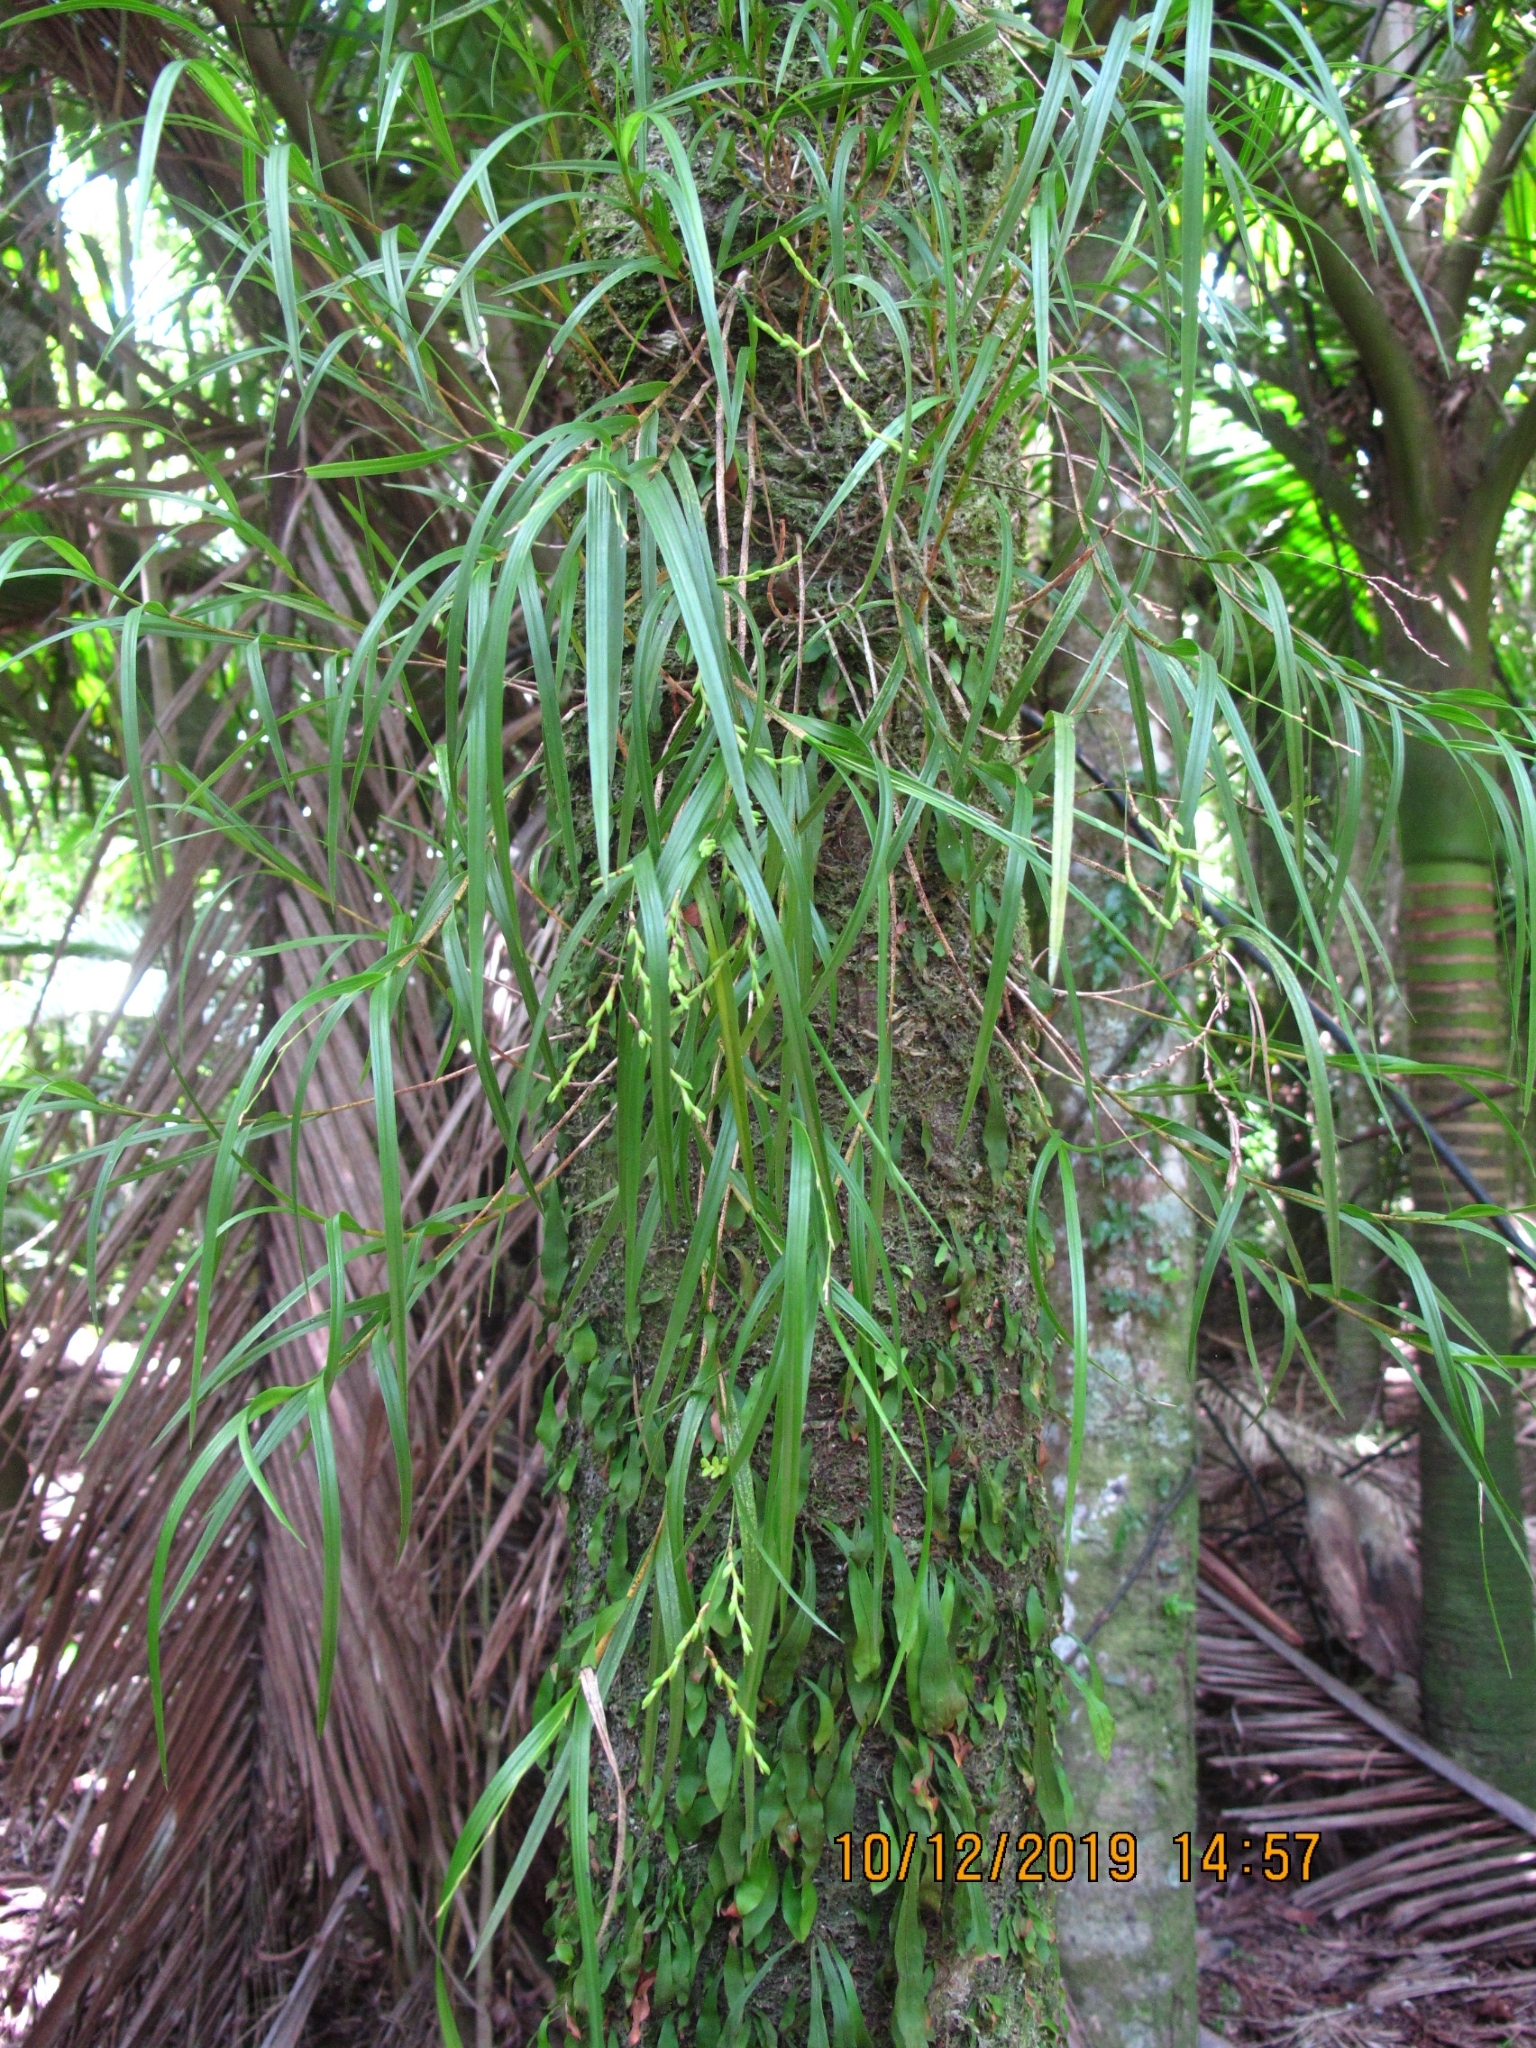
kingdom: Plantae
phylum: Tracheophyta
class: Liliopsida
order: Asparagales
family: Orchidaceae
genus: Earina
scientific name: Earina mucronata
